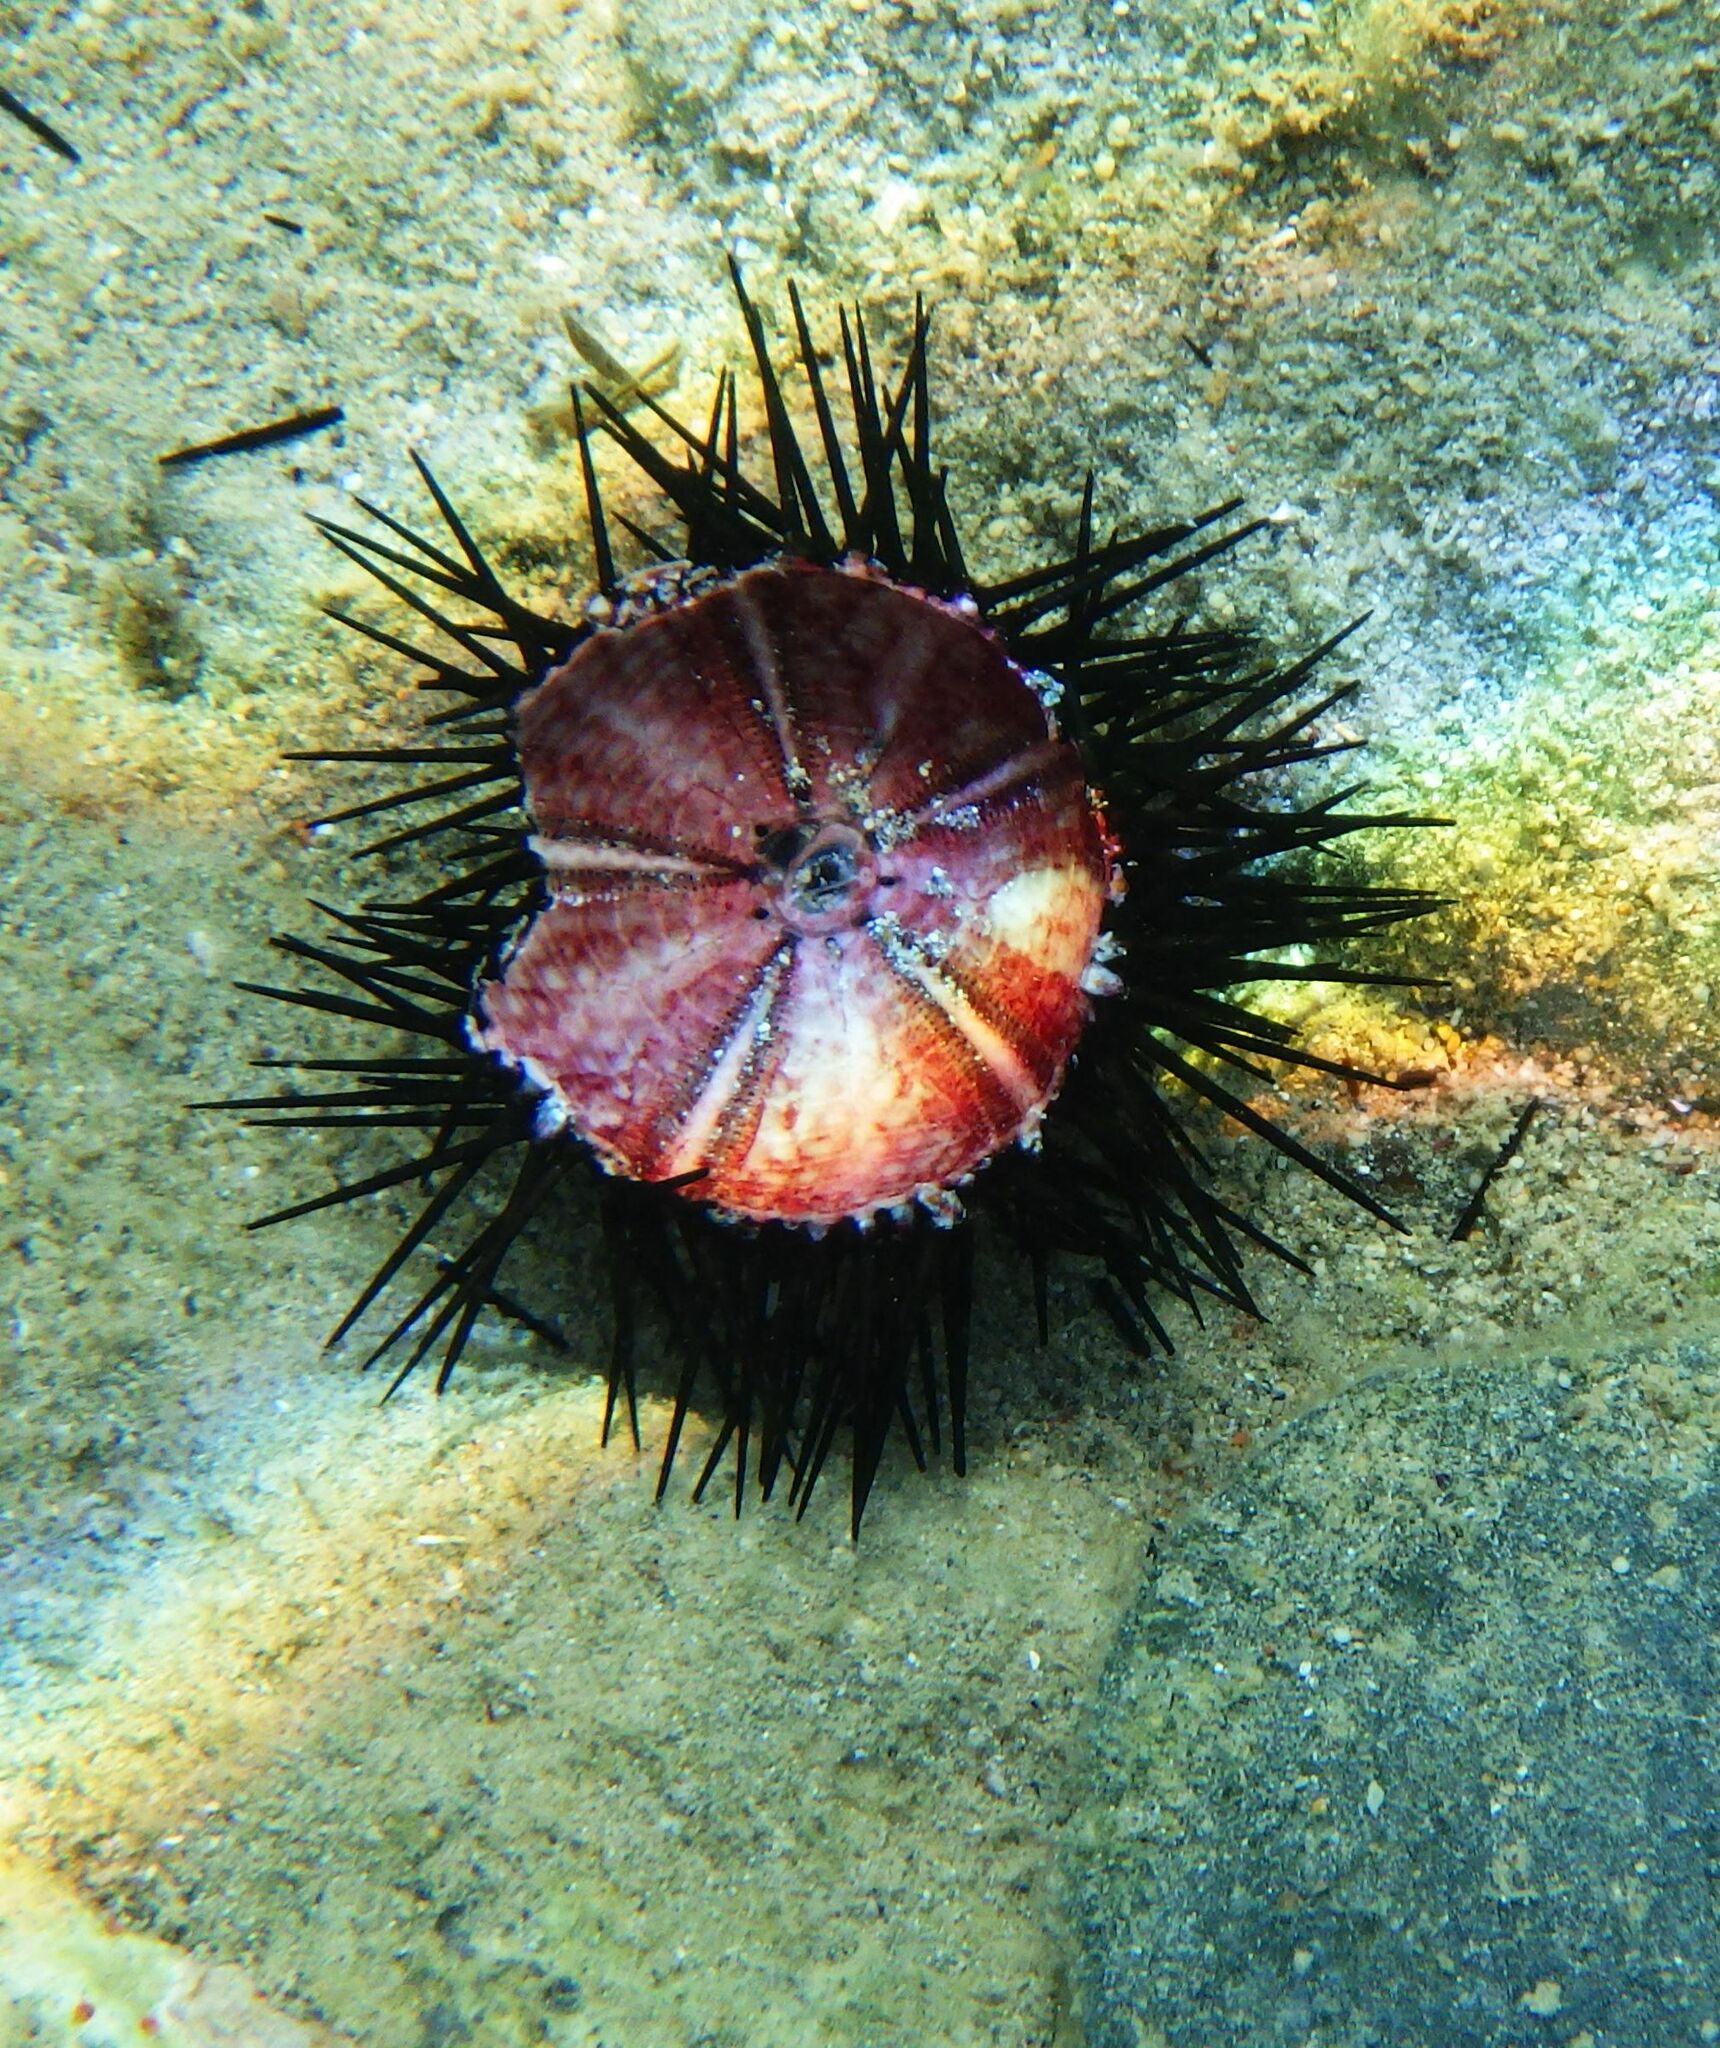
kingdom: Animalia
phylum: Echinodermata
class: Echinoidea
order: Arbacioida
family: Arbaciidae
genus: Arbacia
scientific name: Arbacia lixula
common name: Black sea urchin
